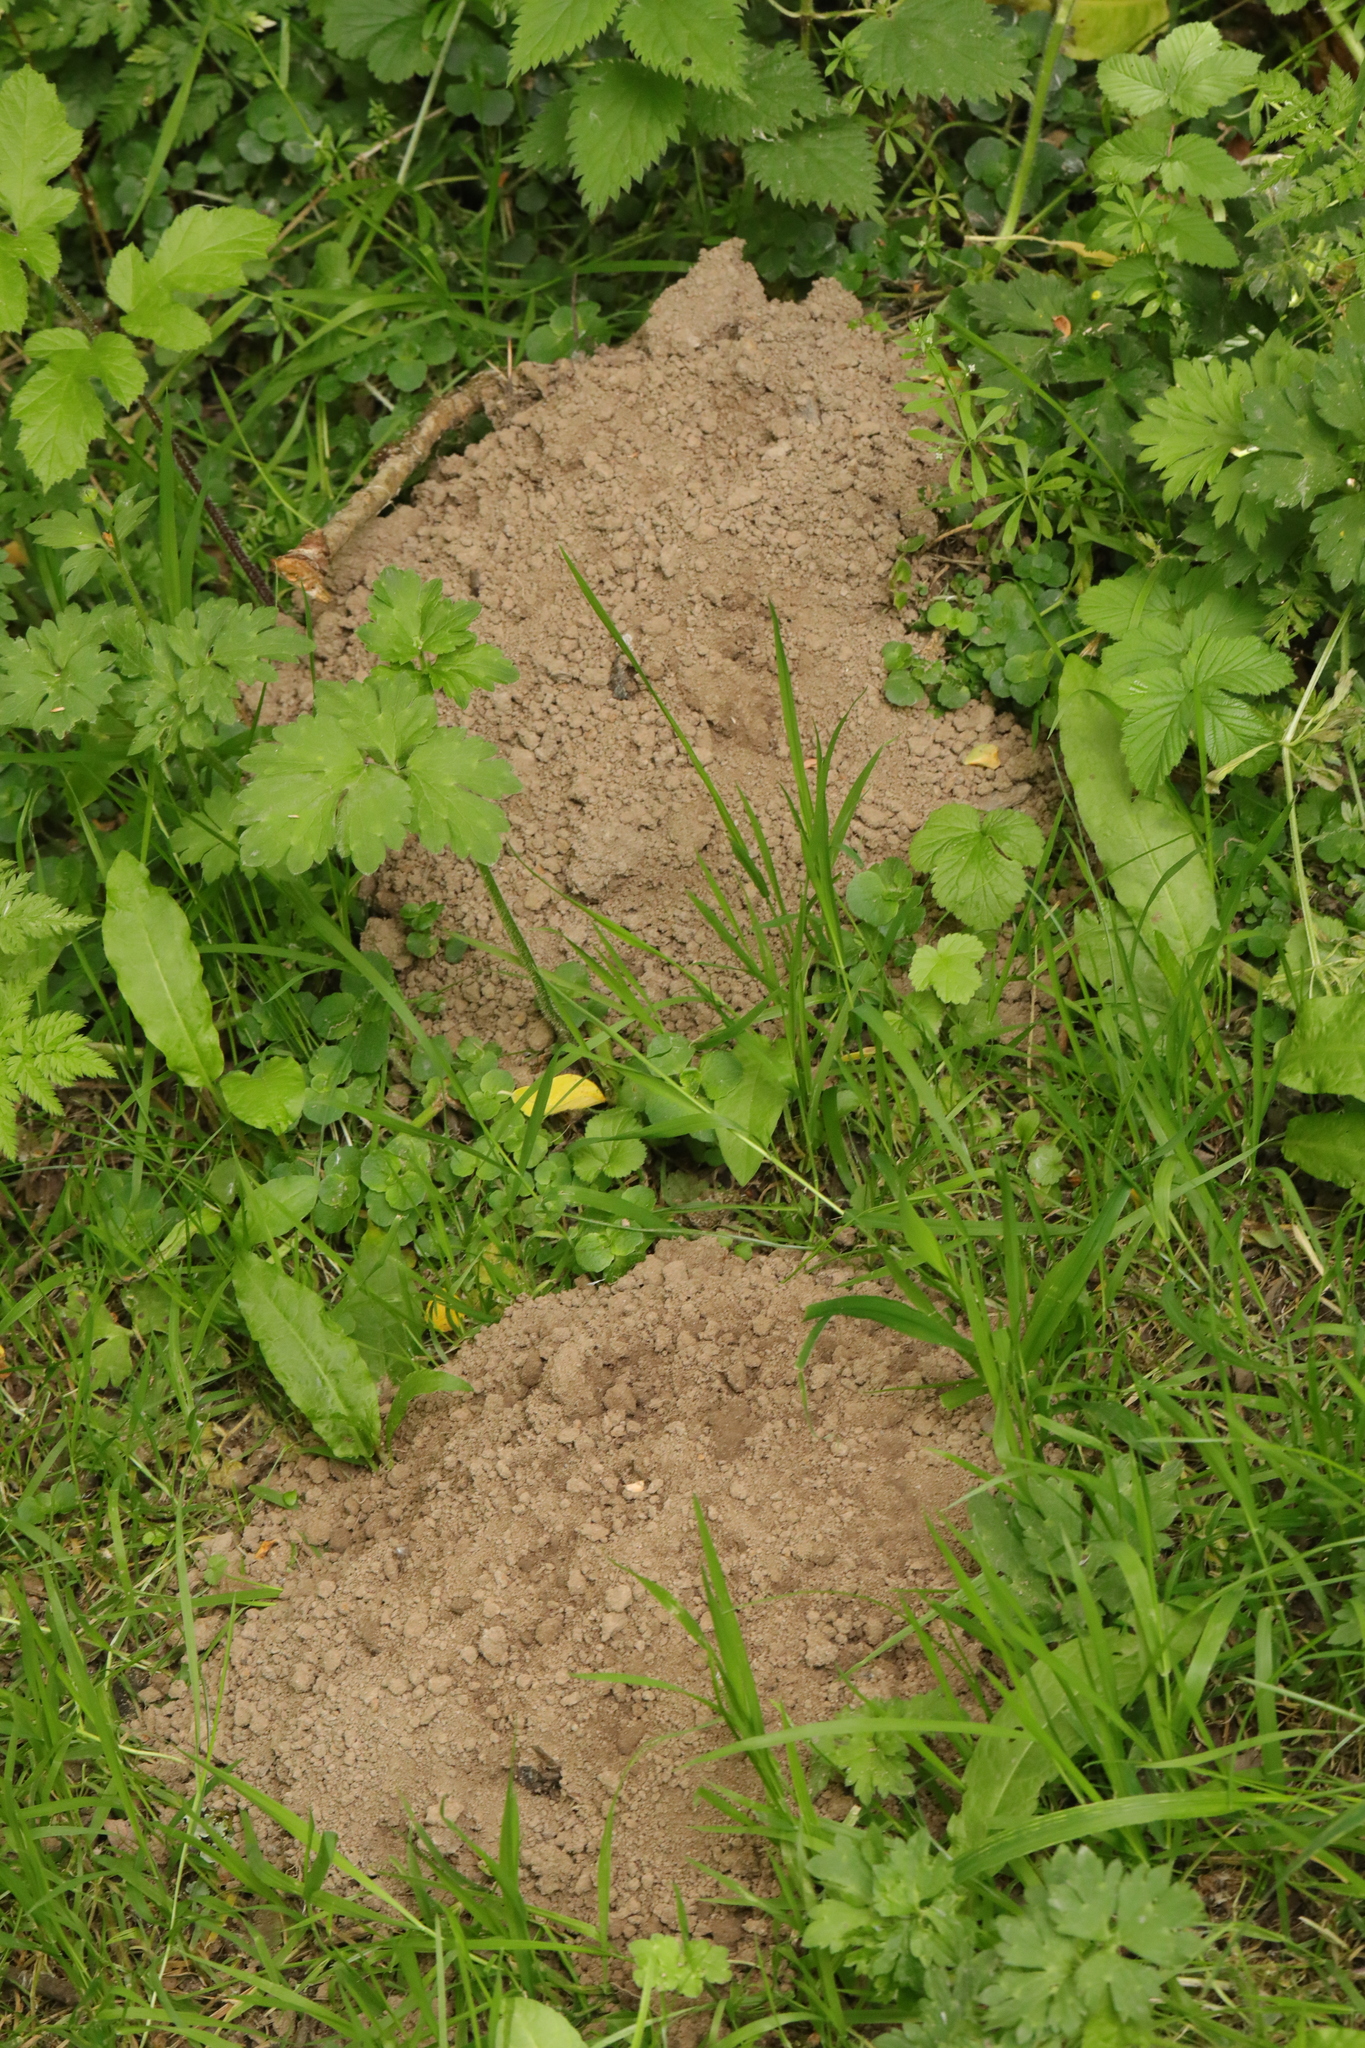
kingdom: Animalia
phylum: Chordata
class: Mammalia
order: Soricomorpha
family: Talpidae
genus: Talpa
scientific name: Talpa europaea
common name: European mole
